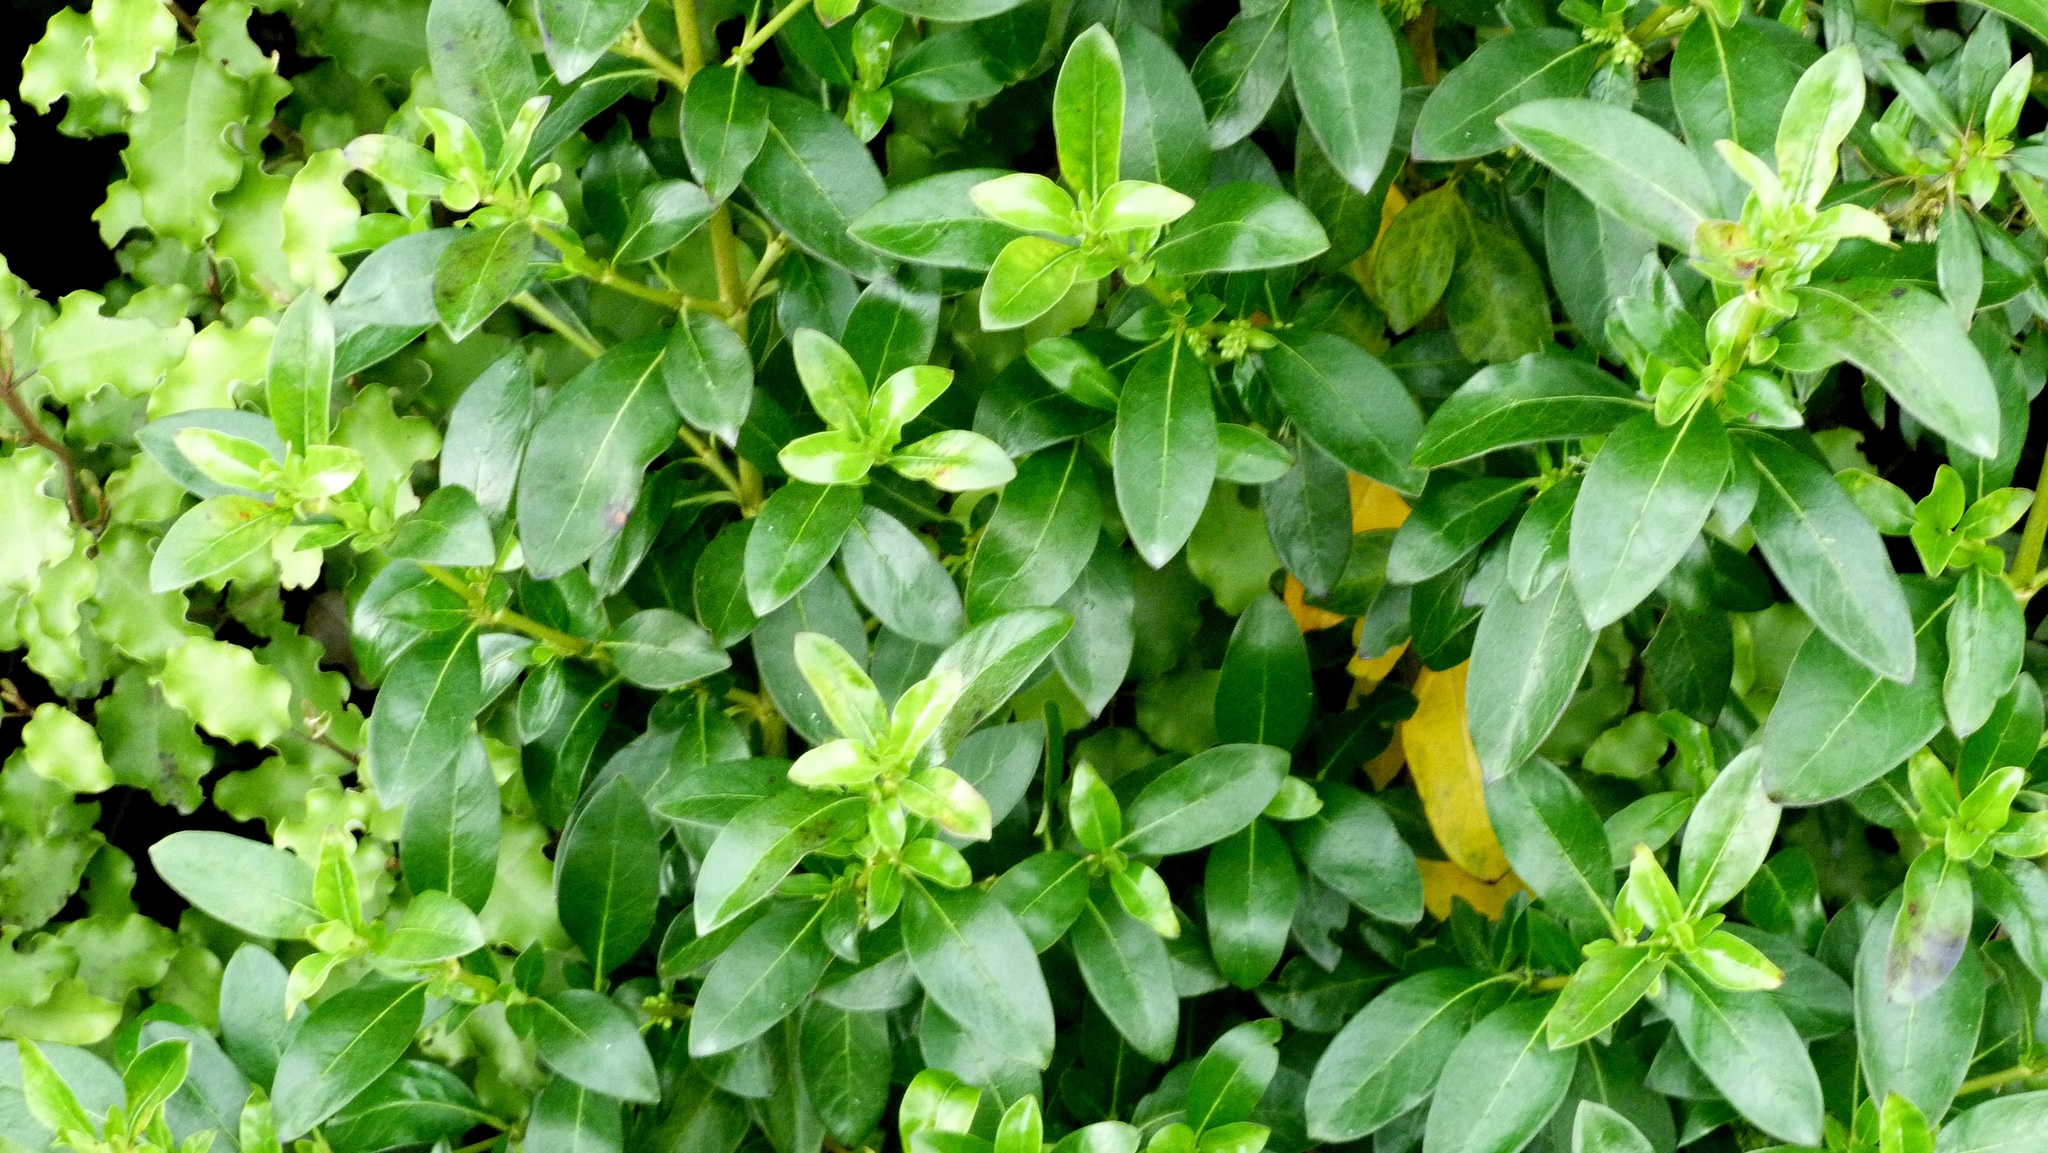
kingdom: Plantae
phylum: Tracheophyta
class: Magnoliopsida
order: Gentianales
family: Rubiaceae
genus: Coprosma
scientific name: Coprosma robusta
